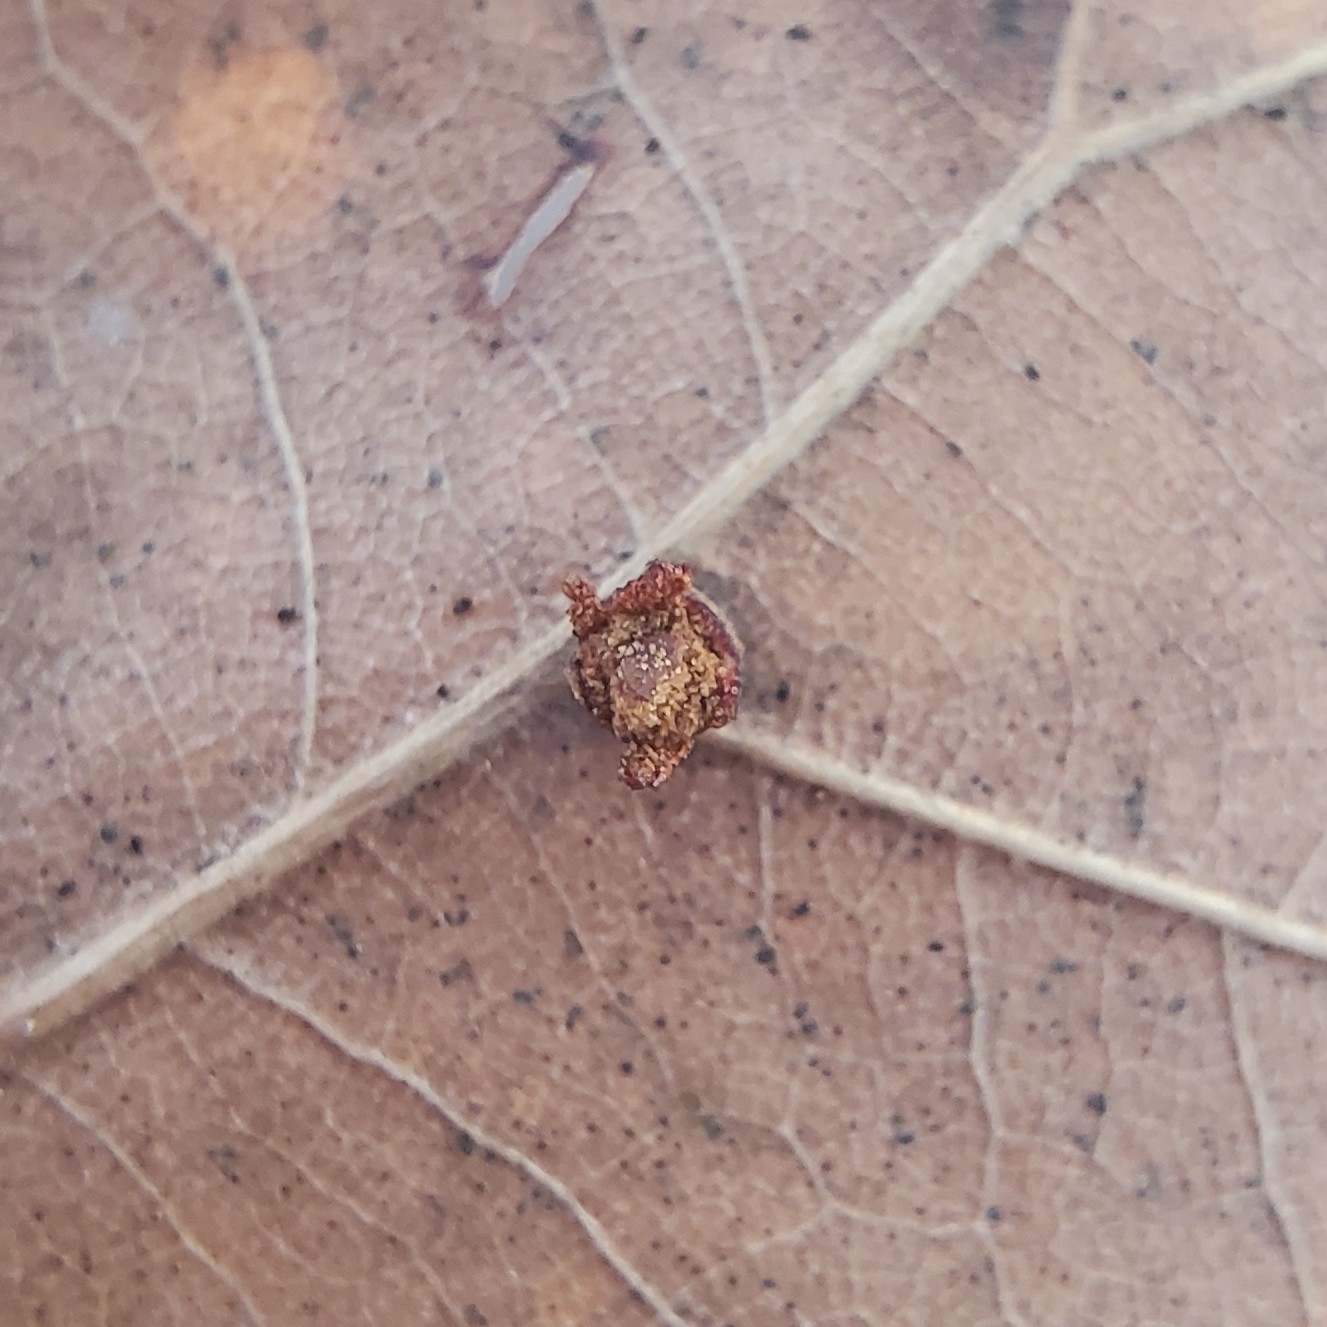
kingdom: Animalia
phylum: Arthropoda
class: Insecta
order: Diptera
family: Cecidomyiidae
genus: Polystepha
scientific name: Polystepha globosa
